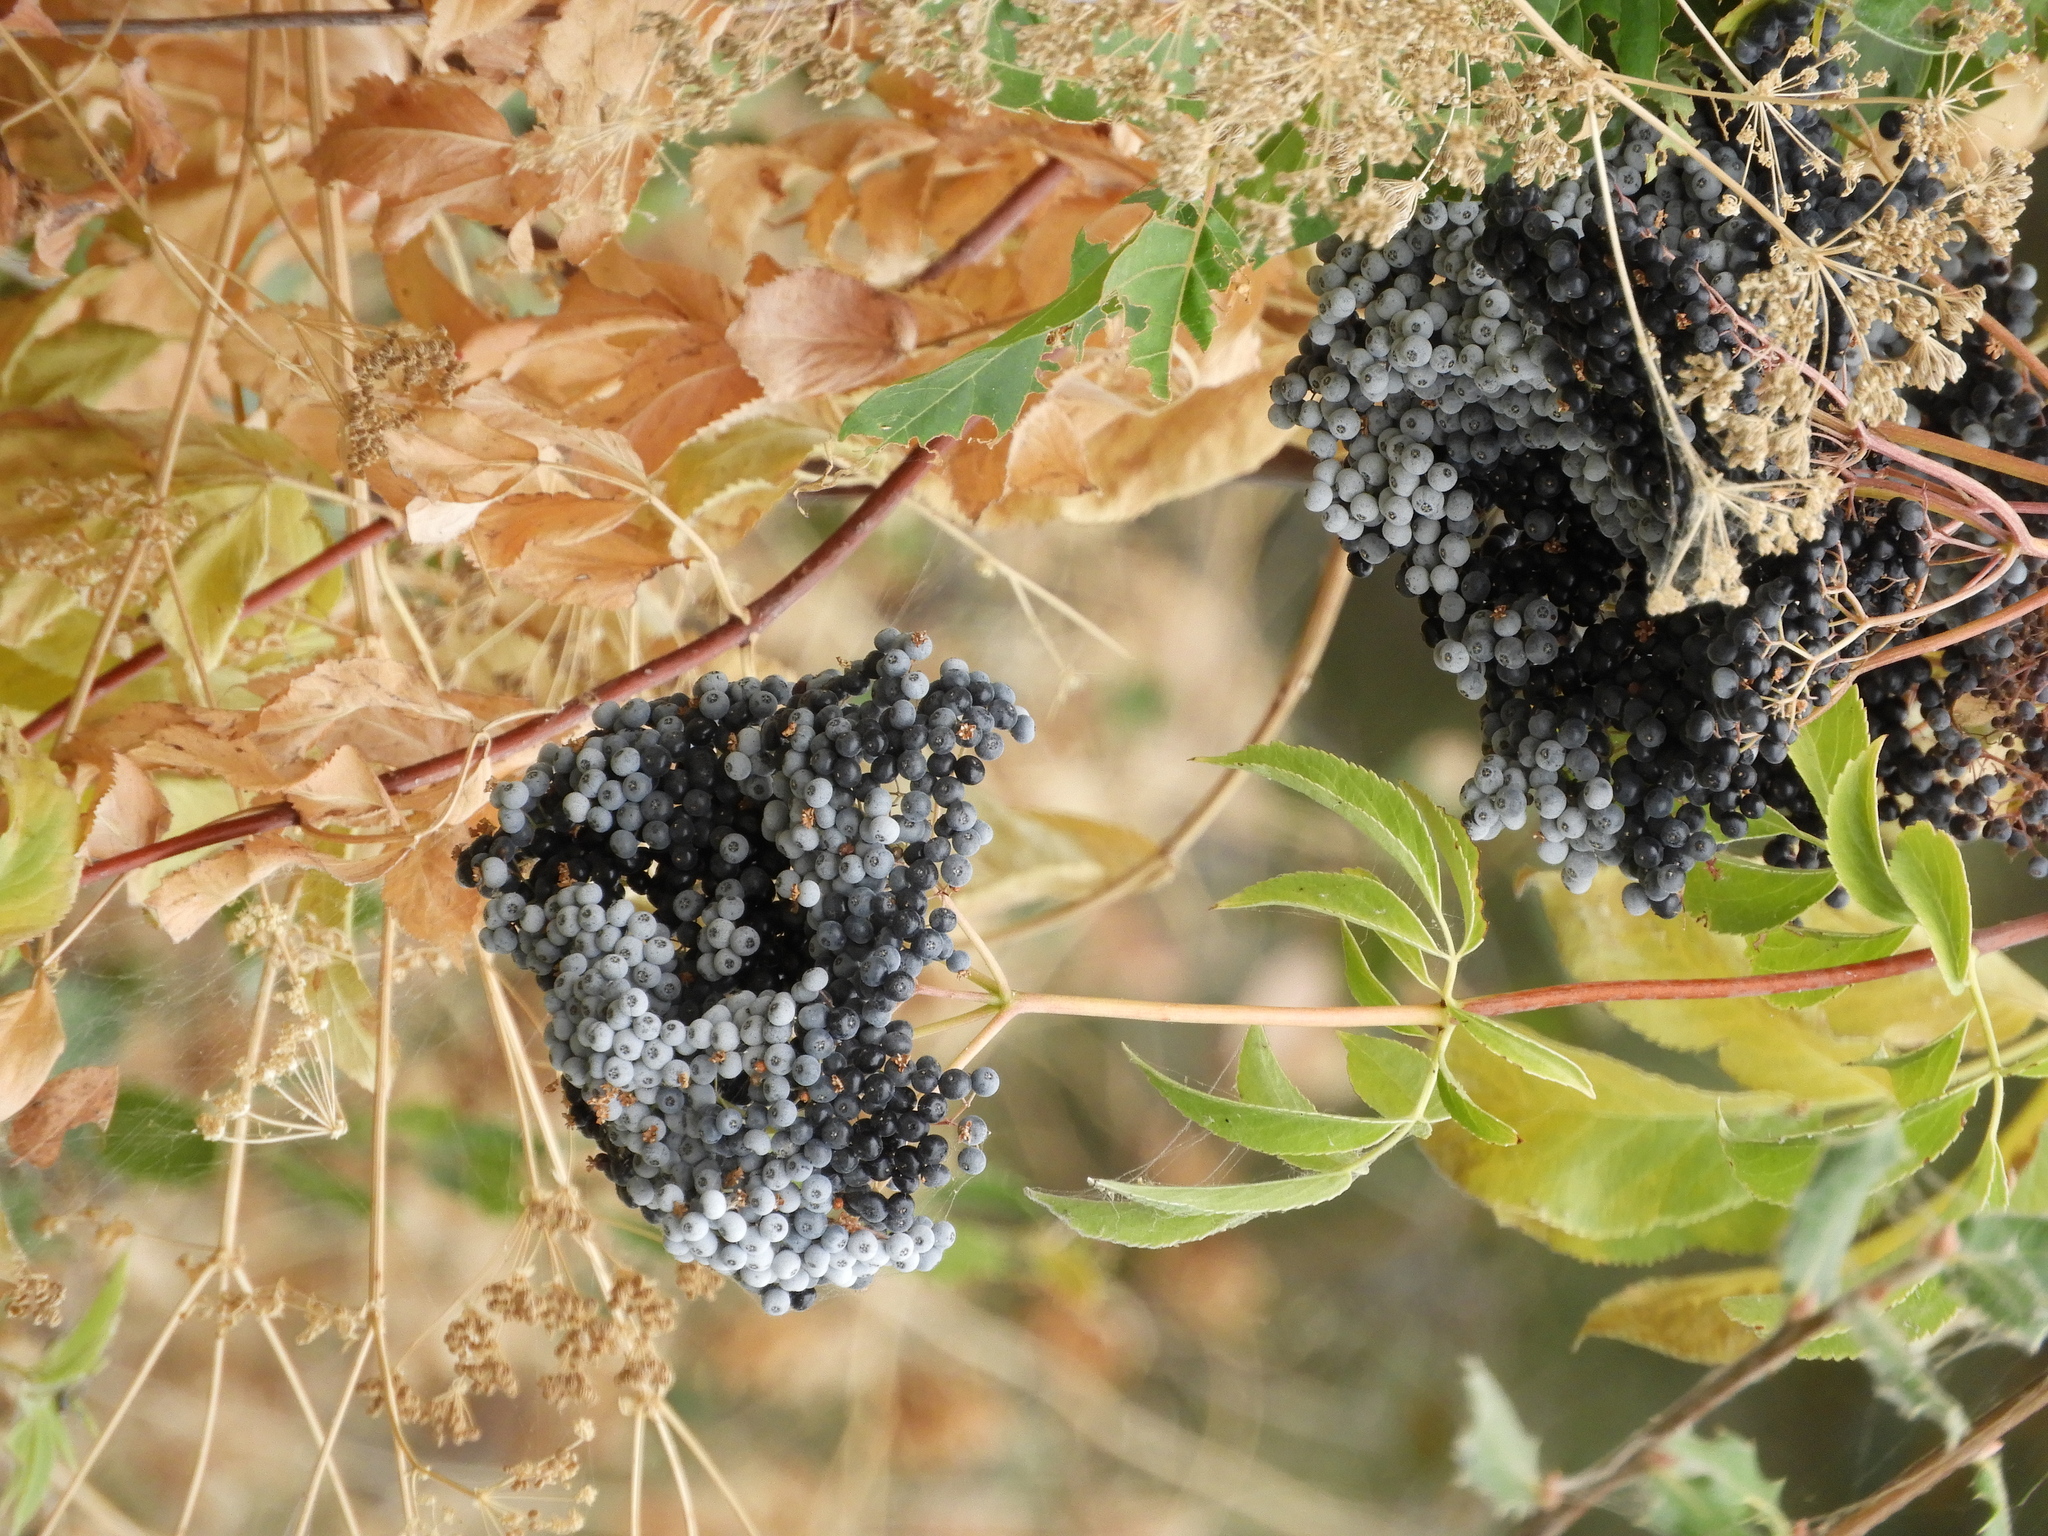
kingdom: Plantae
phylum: Tracheophyta
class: Magnoliopsida
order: Dipsacales
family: Viburnaceae
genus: Sambucus
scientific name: Sambucus cerulea
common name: Blue elder
